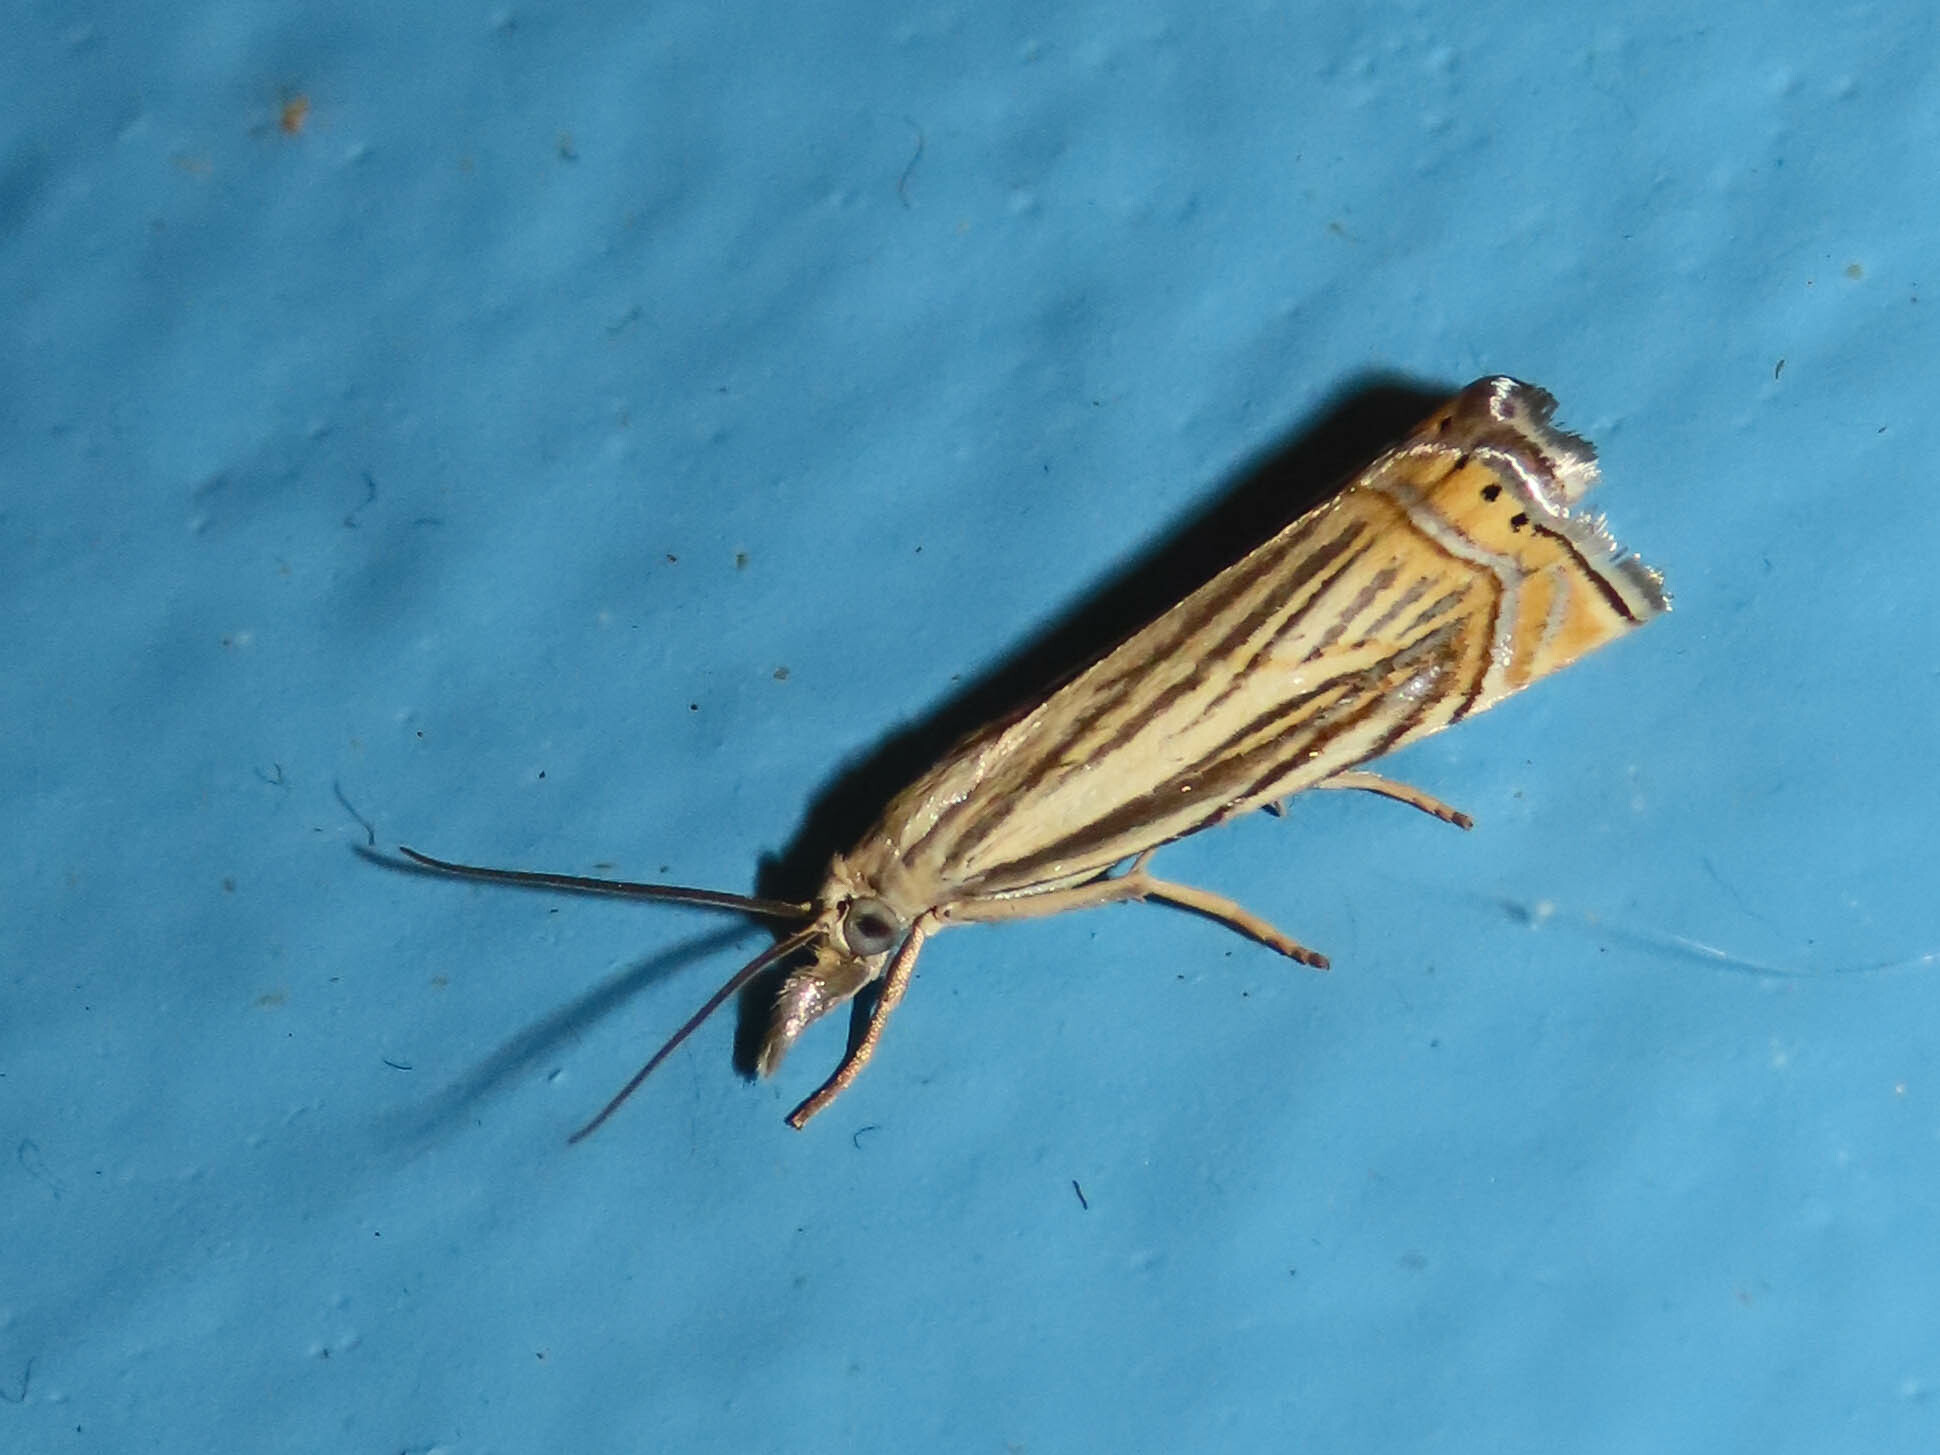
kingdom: Animalia
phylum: Arthropoda
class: Insecta
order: Lepidoptera
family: Crambidae
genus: Chrysoteuchia
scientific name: Chrysoteuchia topiarius
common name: Topiary grass-veneer
